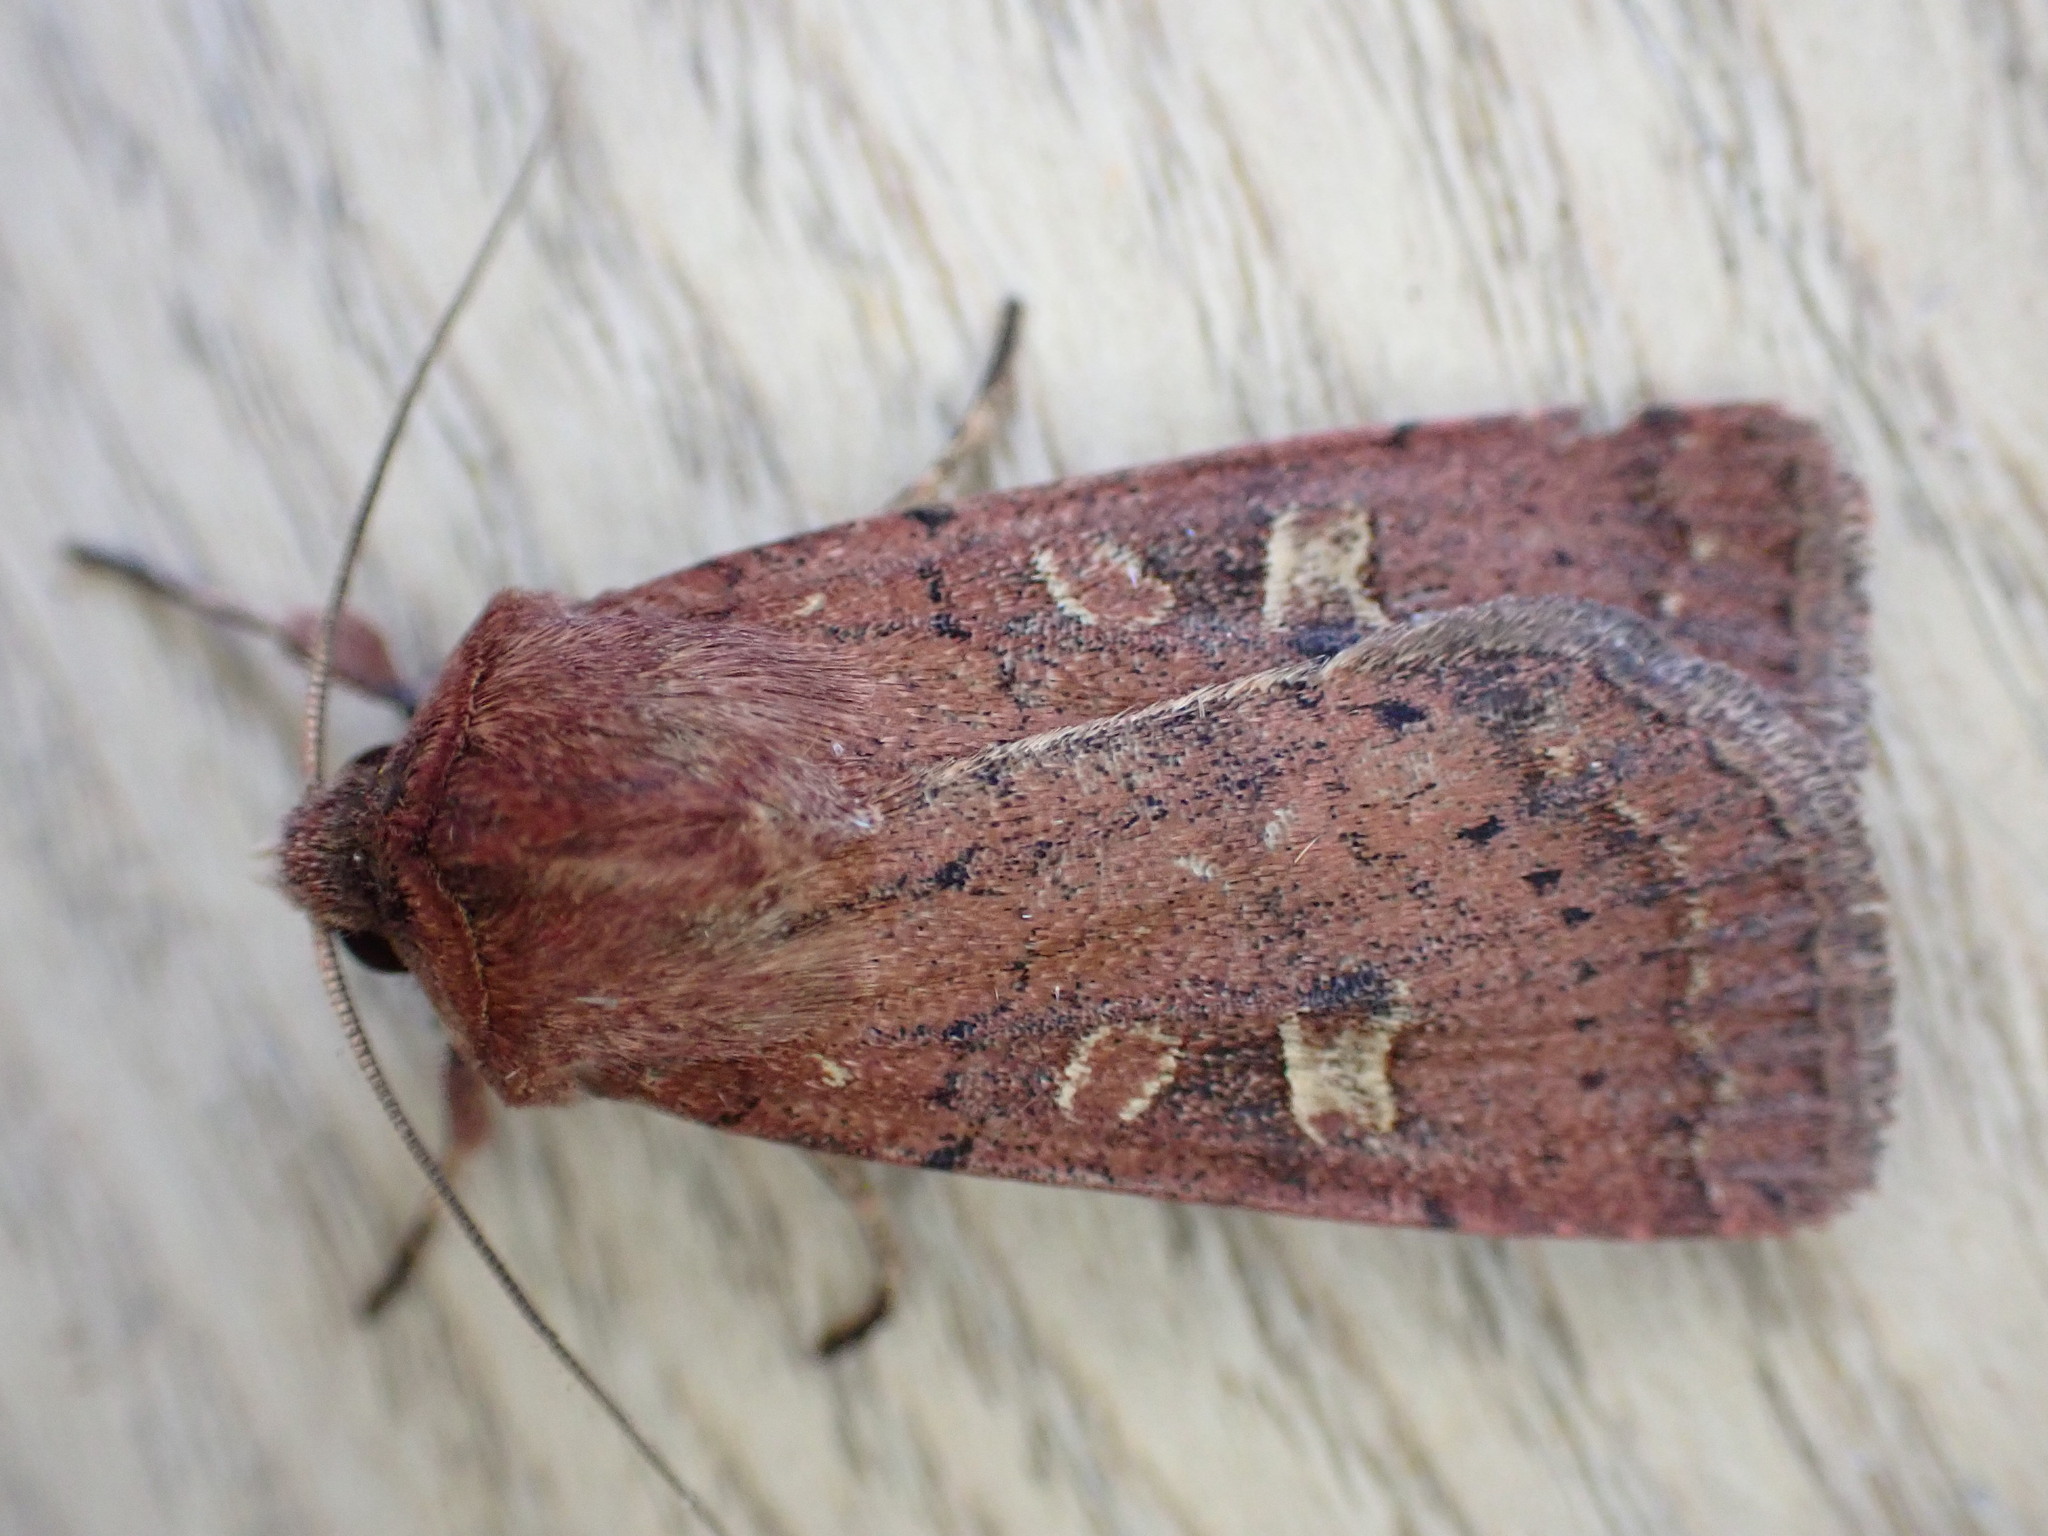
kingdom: Animalia
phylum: Arthropoda
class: Insecta
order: Lepidoptera
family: Noctuidae
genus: Xestia
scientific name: Xestia xanthographa
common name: Square-spot rustic
